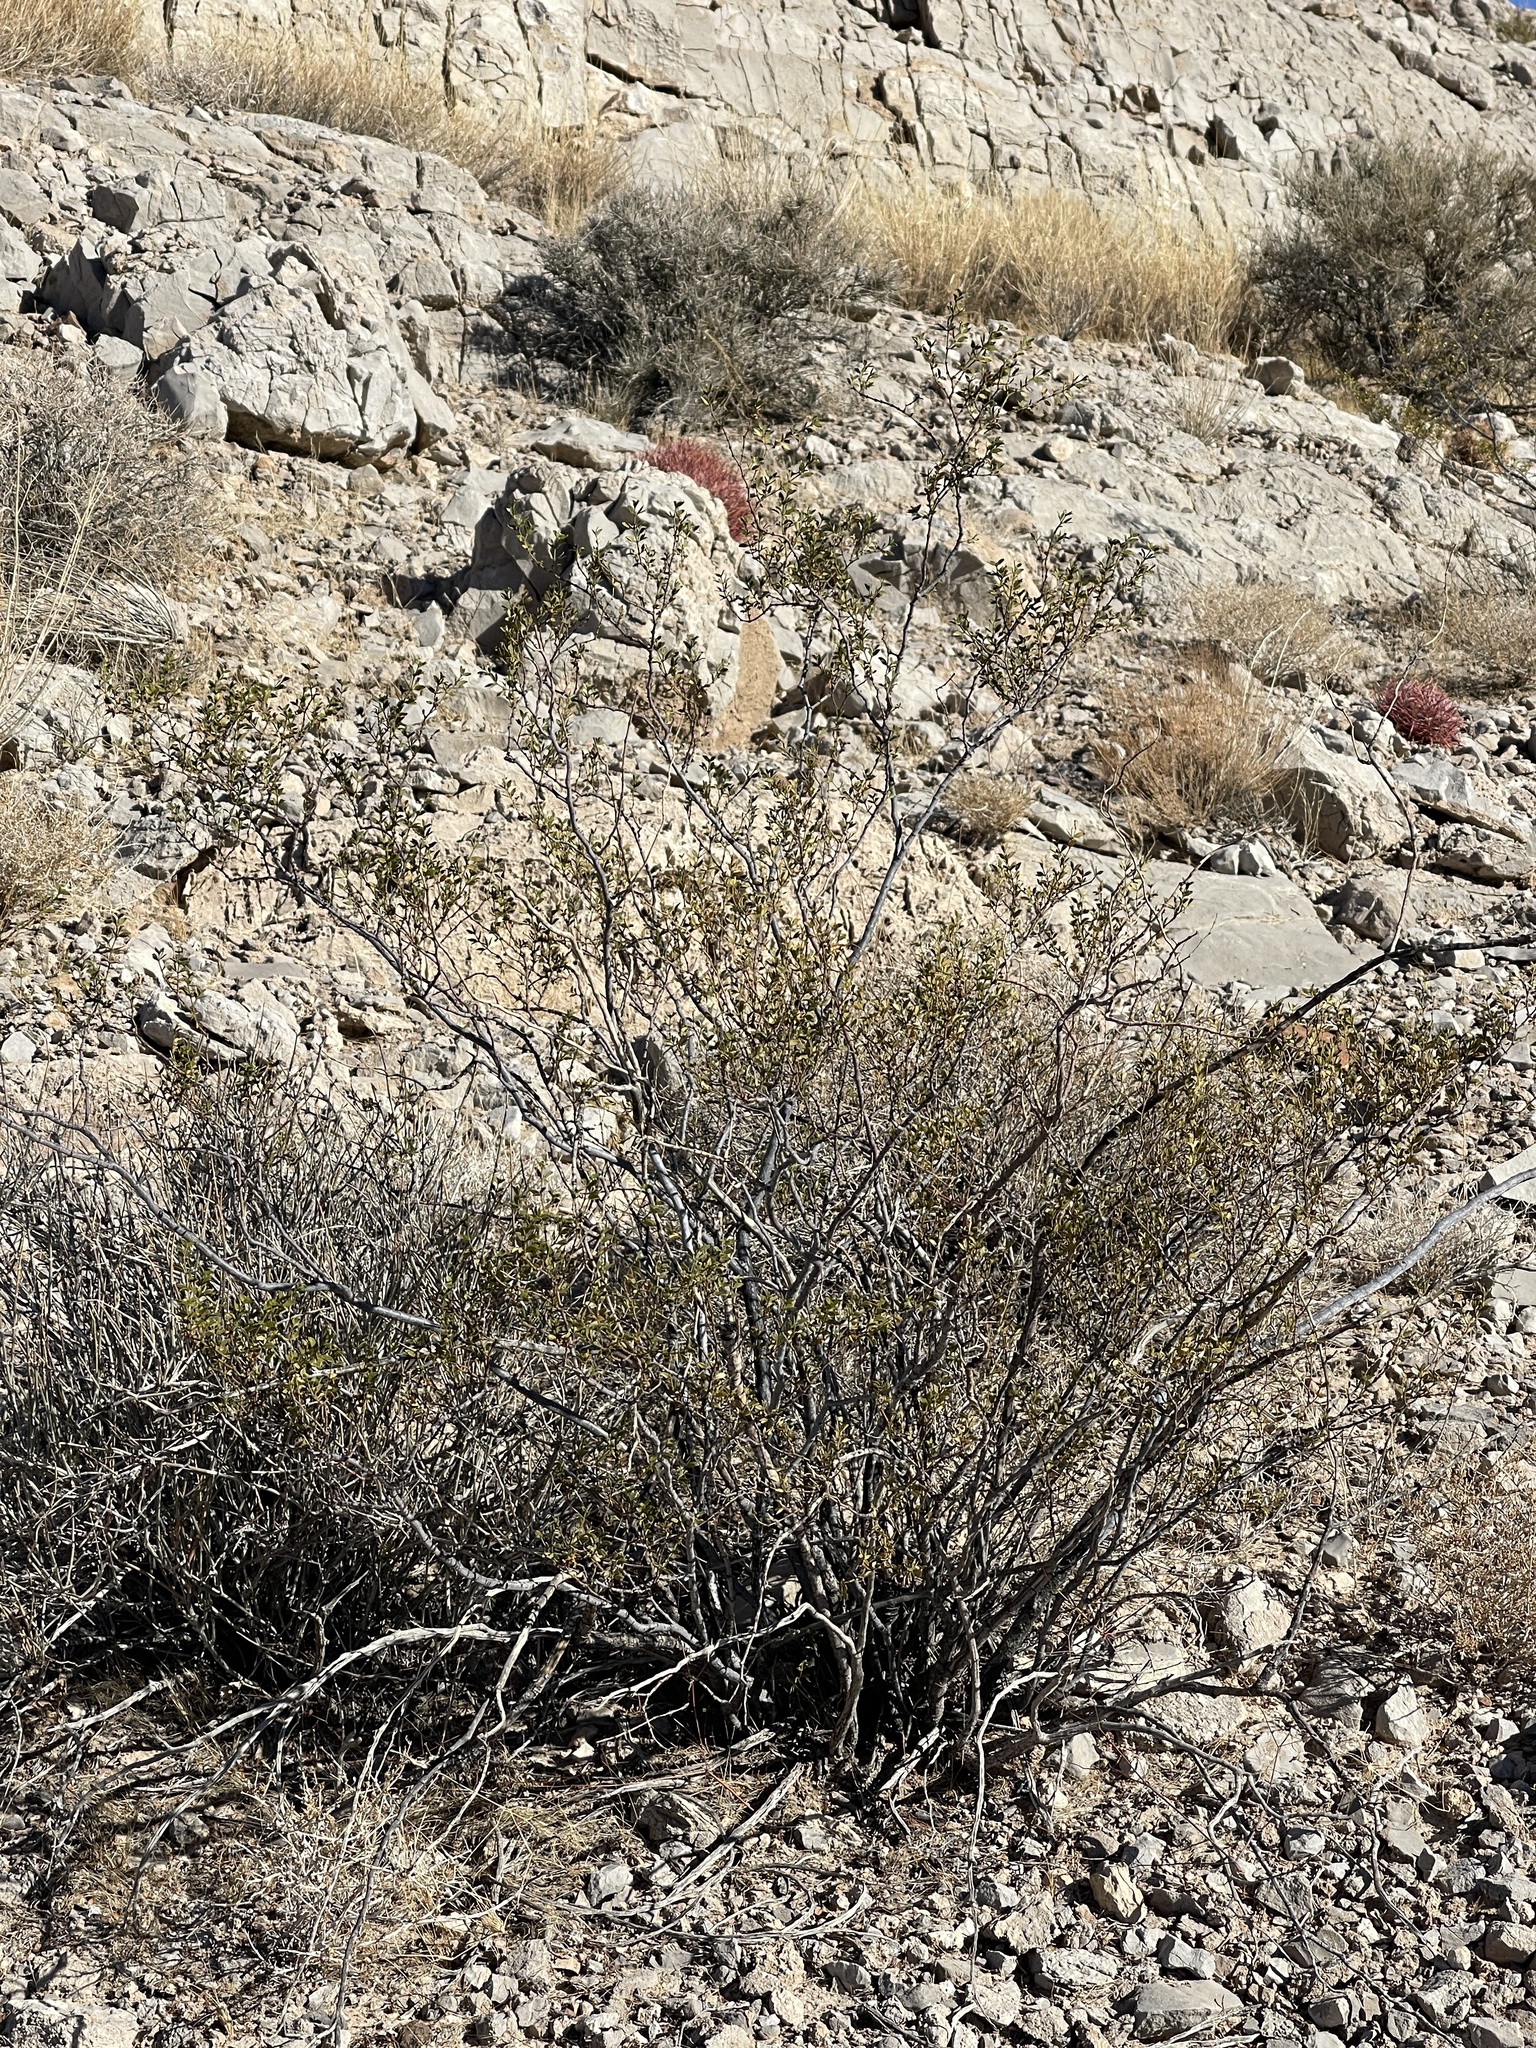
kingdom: Plantae
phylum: Tracheophyta
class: Magnoliopsida
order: Zygophyllales
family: Zygophyllaceae
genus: Larrea
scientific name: Larrea tridentata
